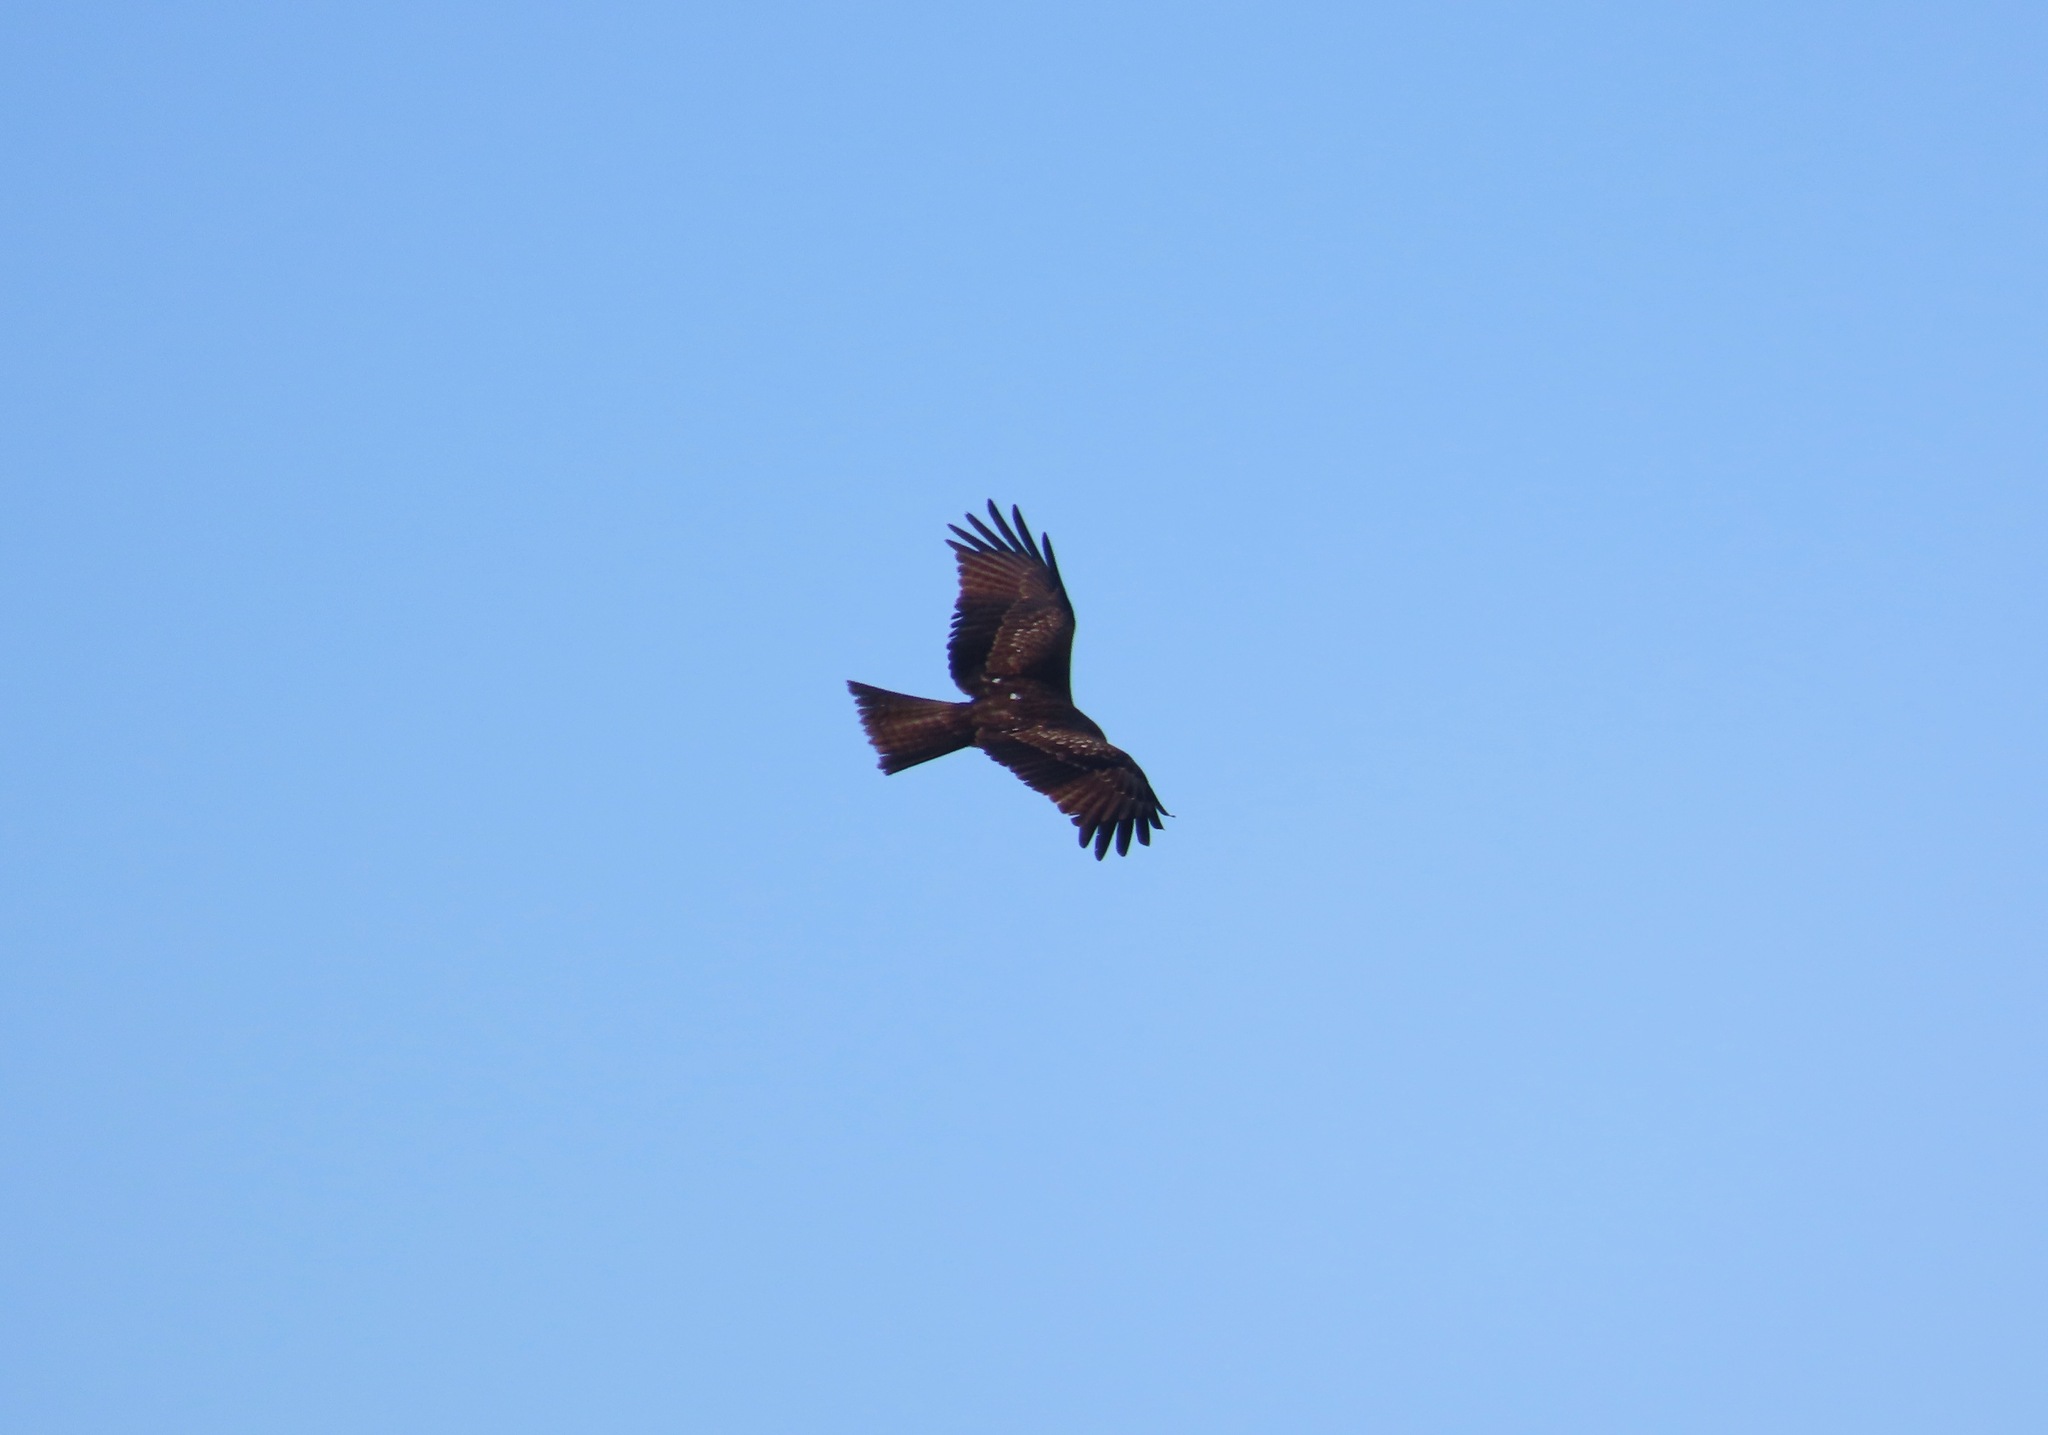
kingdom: Animalia
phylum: Chordata
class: Aves
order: Accipitriformes
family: Accipitridae
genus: Milvus
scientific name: Milvus migrans
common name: Black kite
